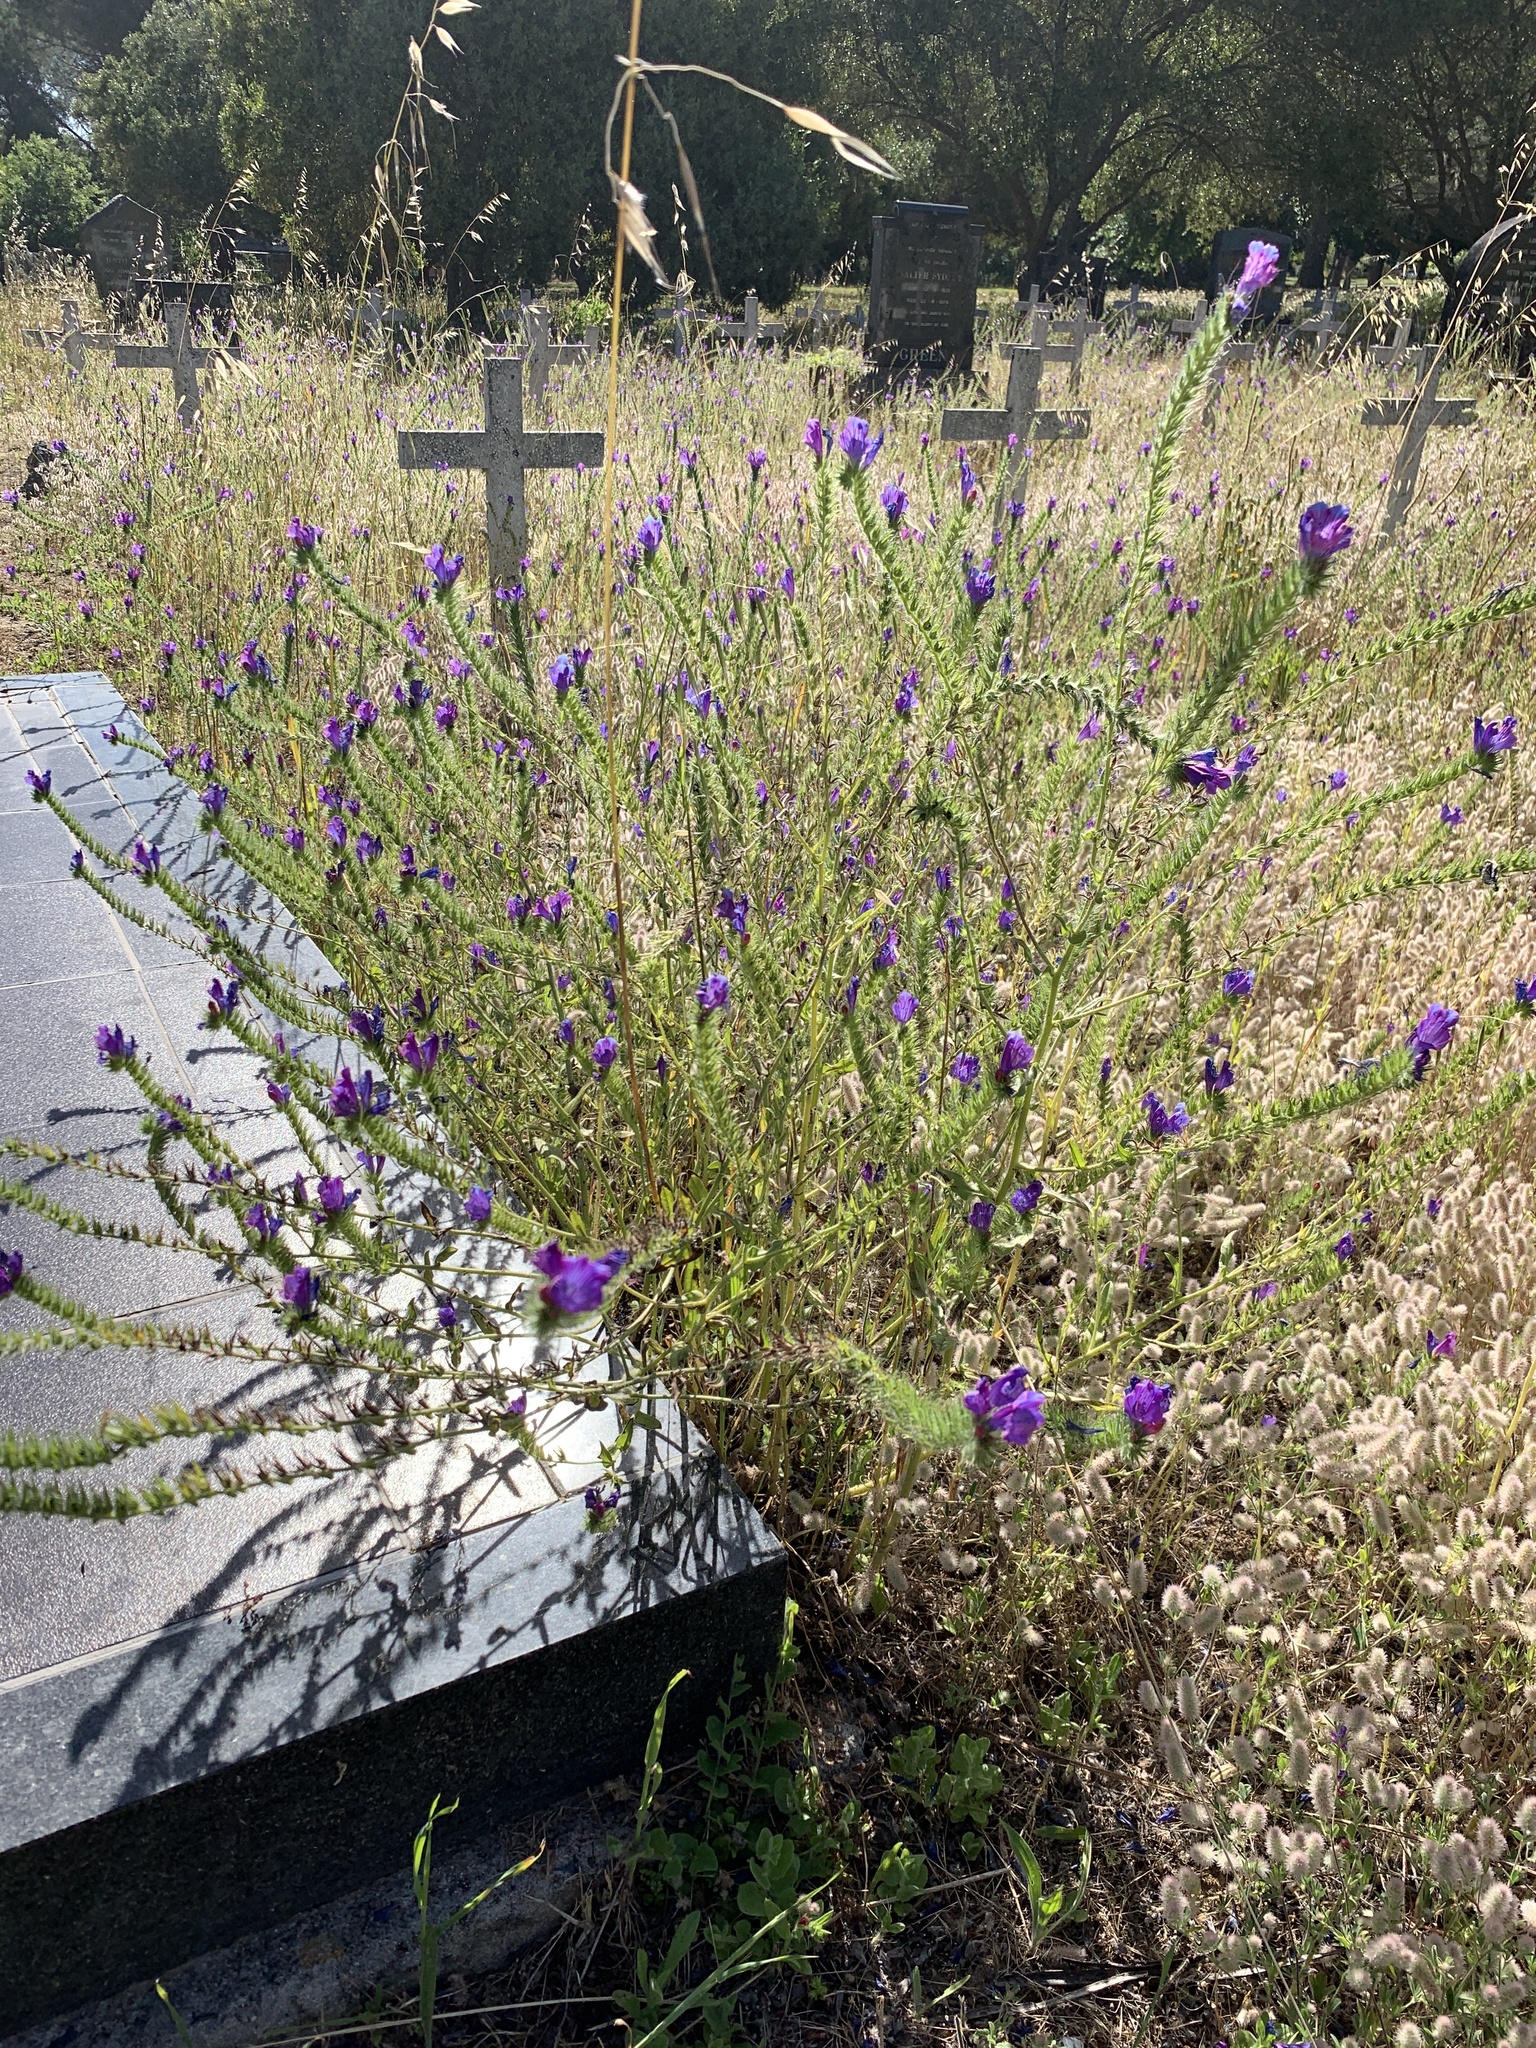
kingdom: Plantae
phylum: Tracheophyta
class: Magnoliopsida
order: Boraginales
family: Boraginaceae
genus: Echium
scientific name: Echium plantagineum
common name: Purple viper's-bugloss
